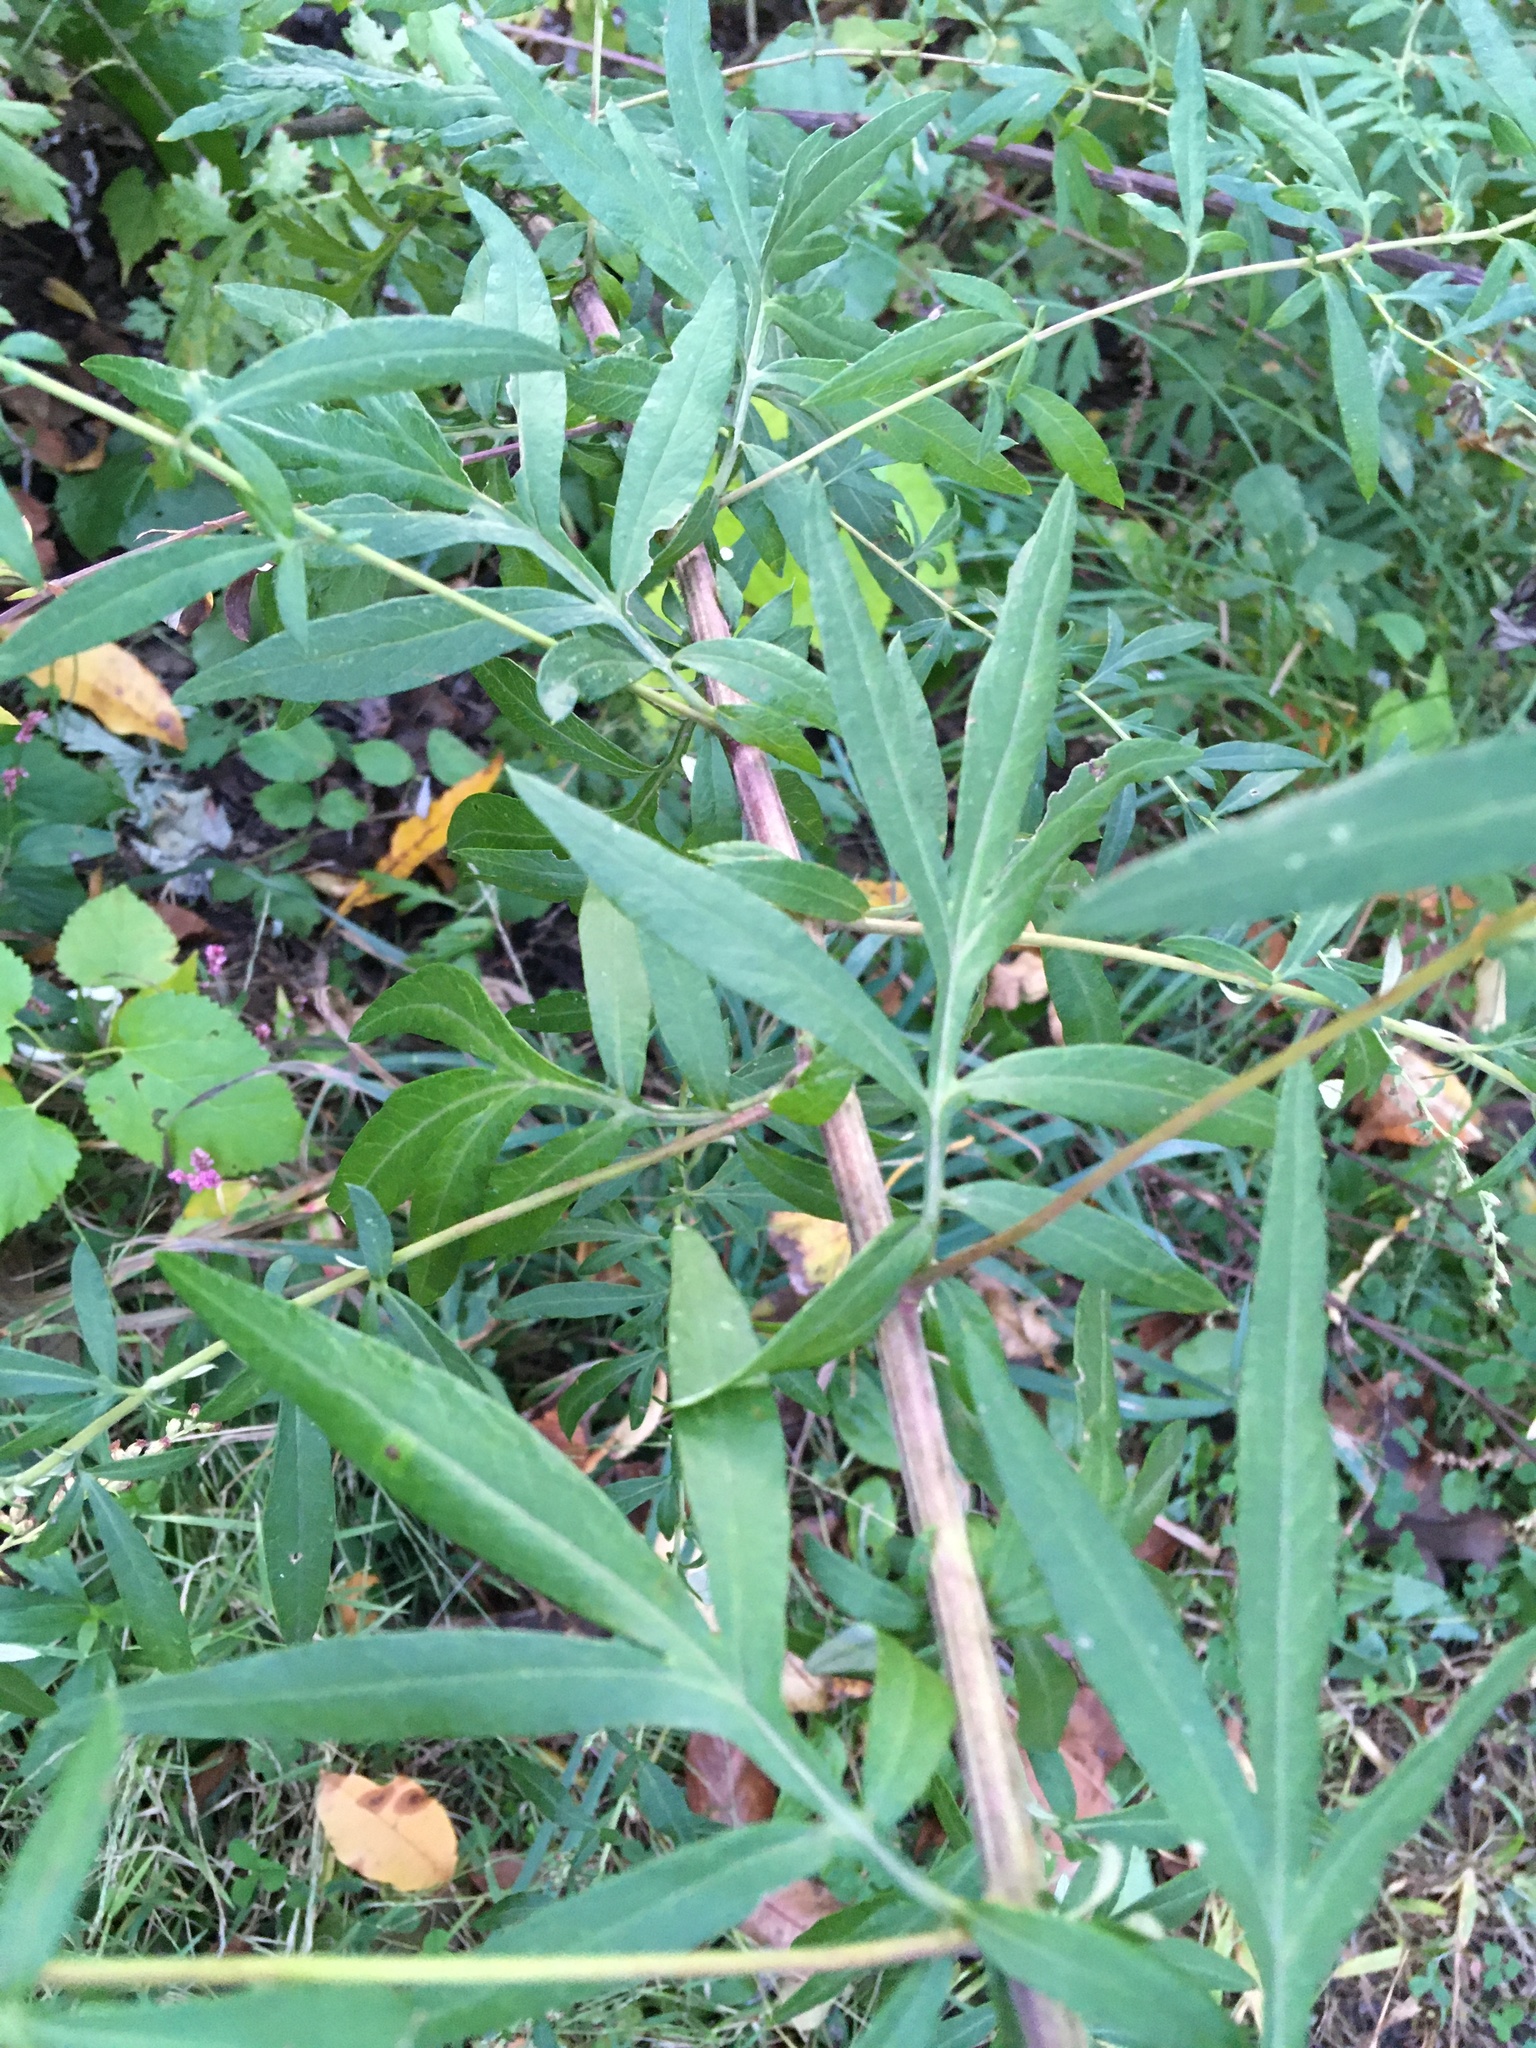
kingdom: Plantae
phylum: Tracheophyta
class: Magnoliopsida
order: Asterales
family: Asteraceae
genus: Artemisia
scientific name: Artemisia vulgaris
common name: Mugwort
